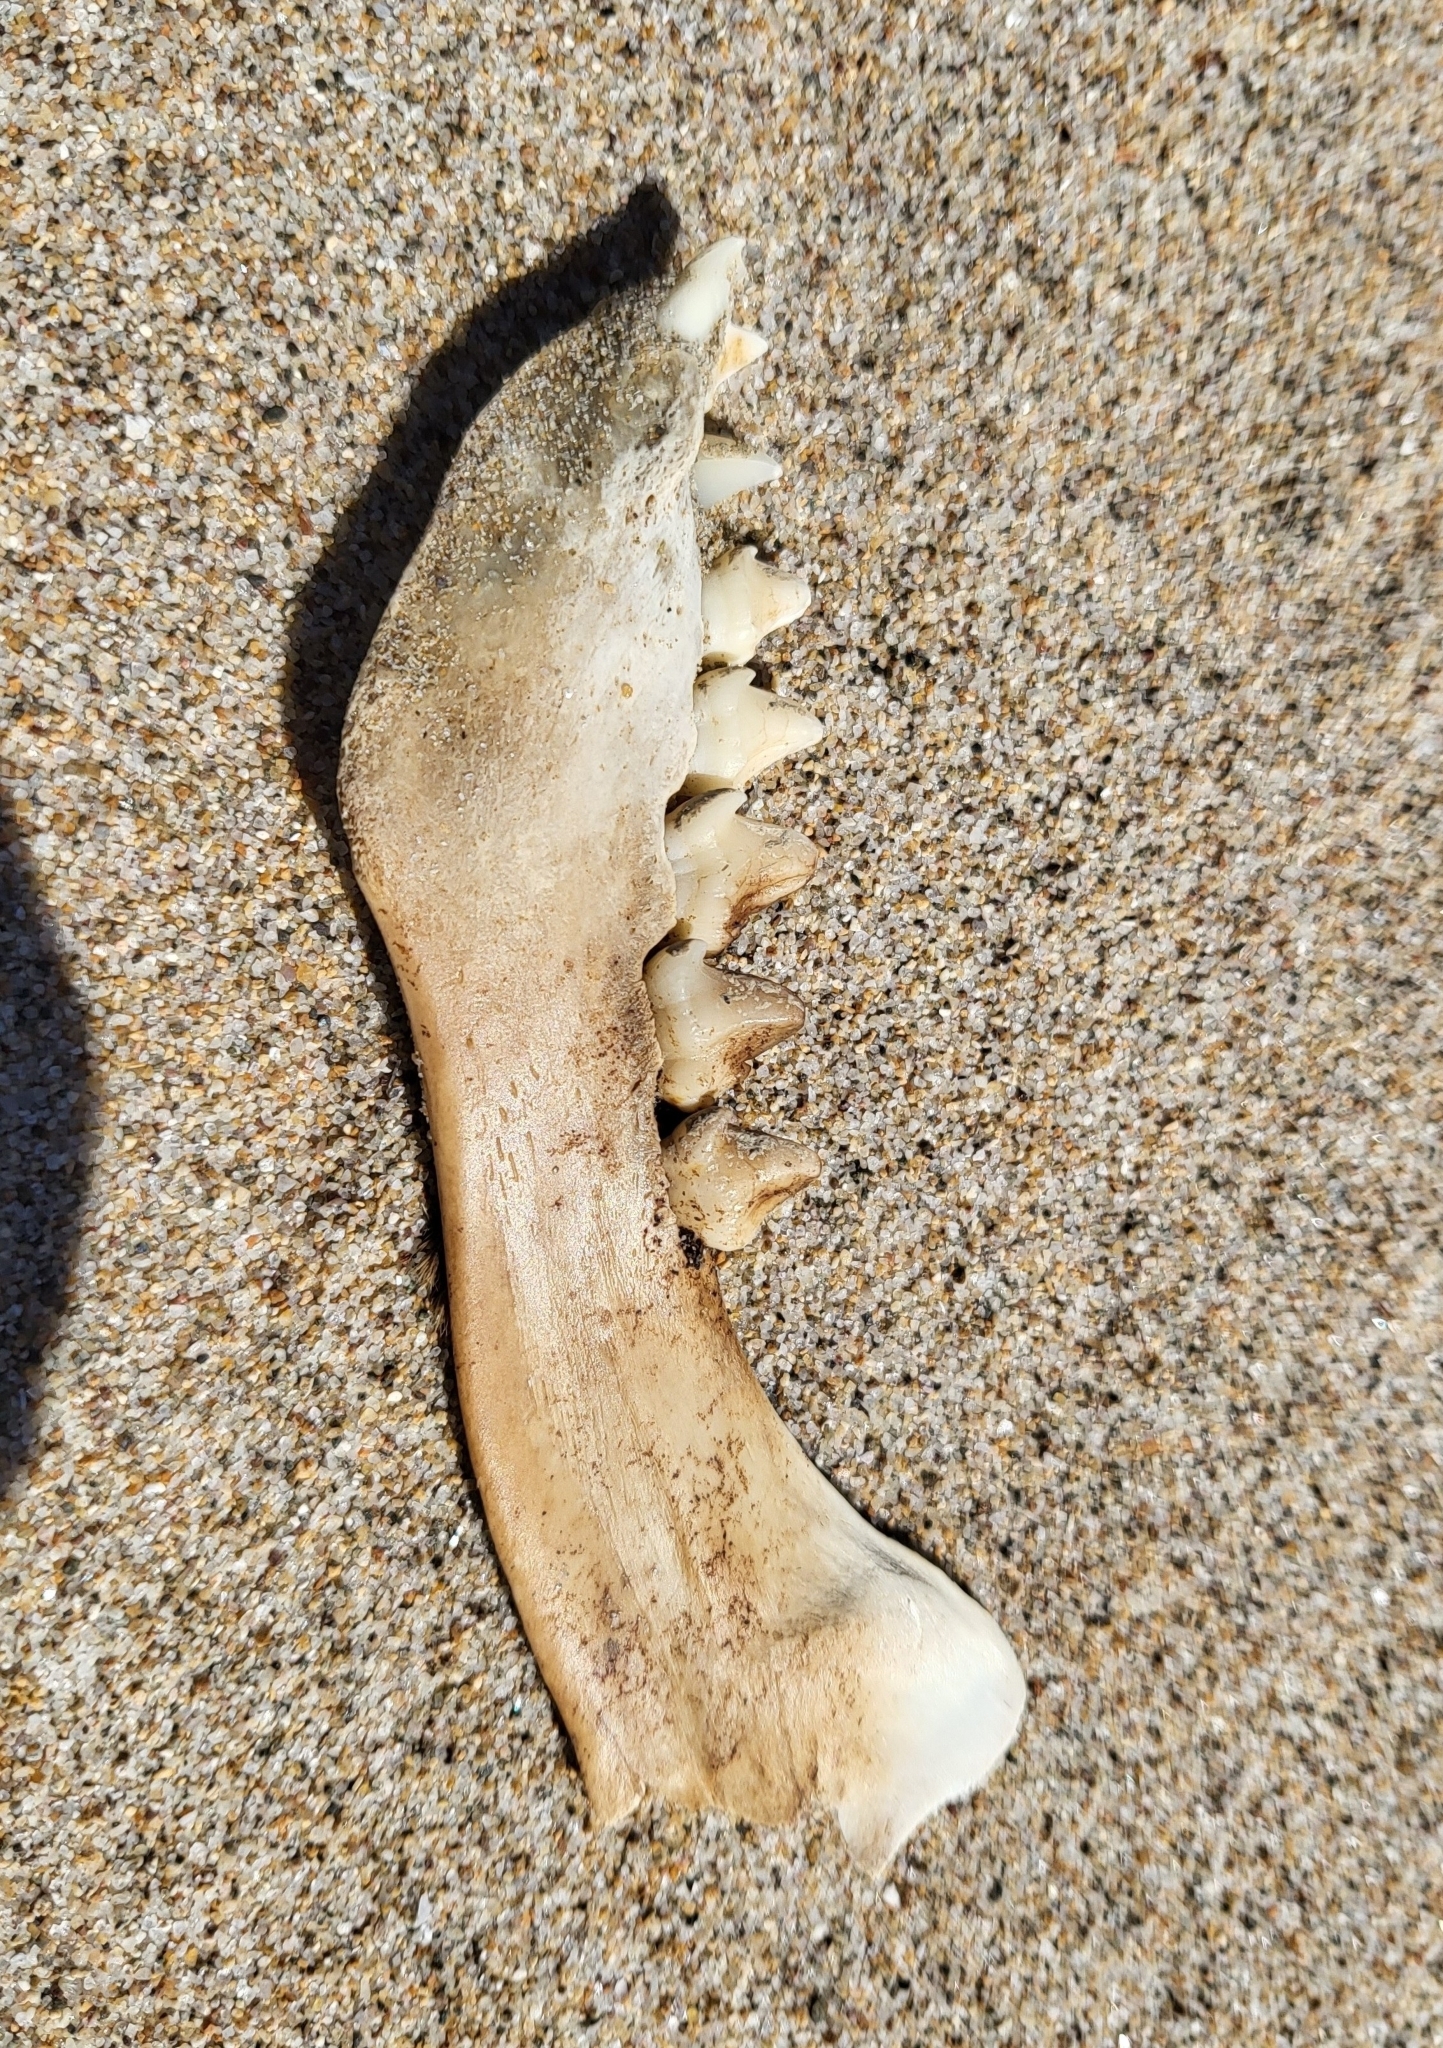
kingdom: Animalia
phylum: Chordata
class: Mammalia
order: Carnivora
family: Otariidae
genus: Zalophus
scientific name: Zalophus californianus
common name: California sea lion
